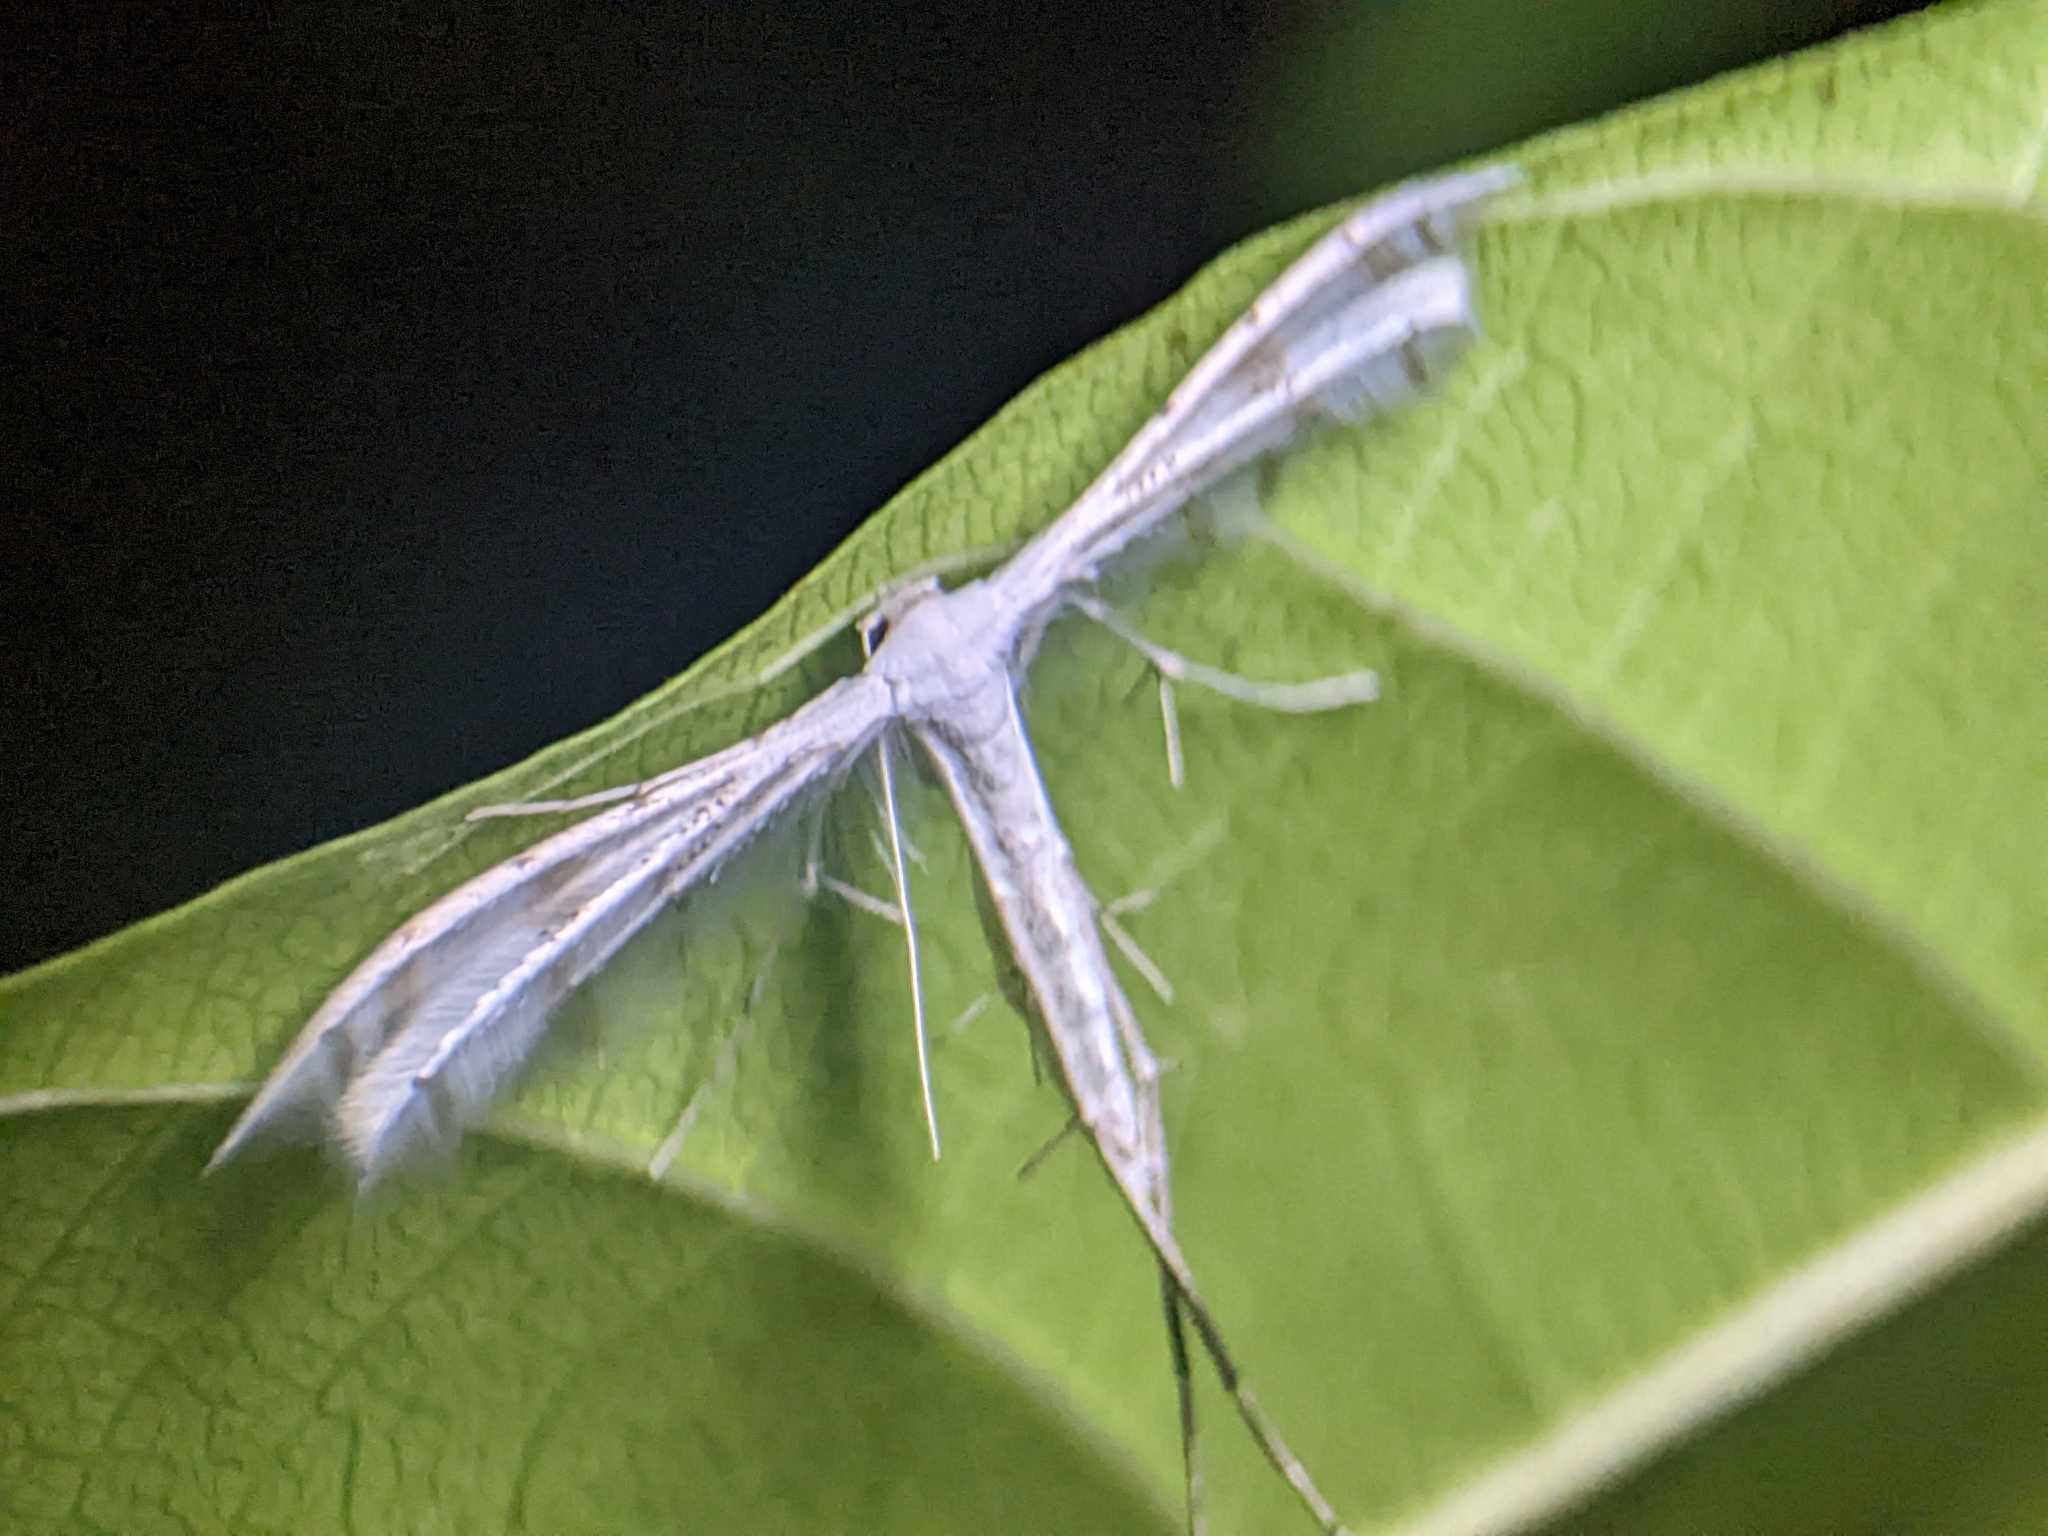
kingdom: Animalia
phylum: Arthropoda
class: Insecta
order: Lepidoptera
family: Pterophoridae
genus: Pterophorus
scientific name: Pterophorus lacteipennis
